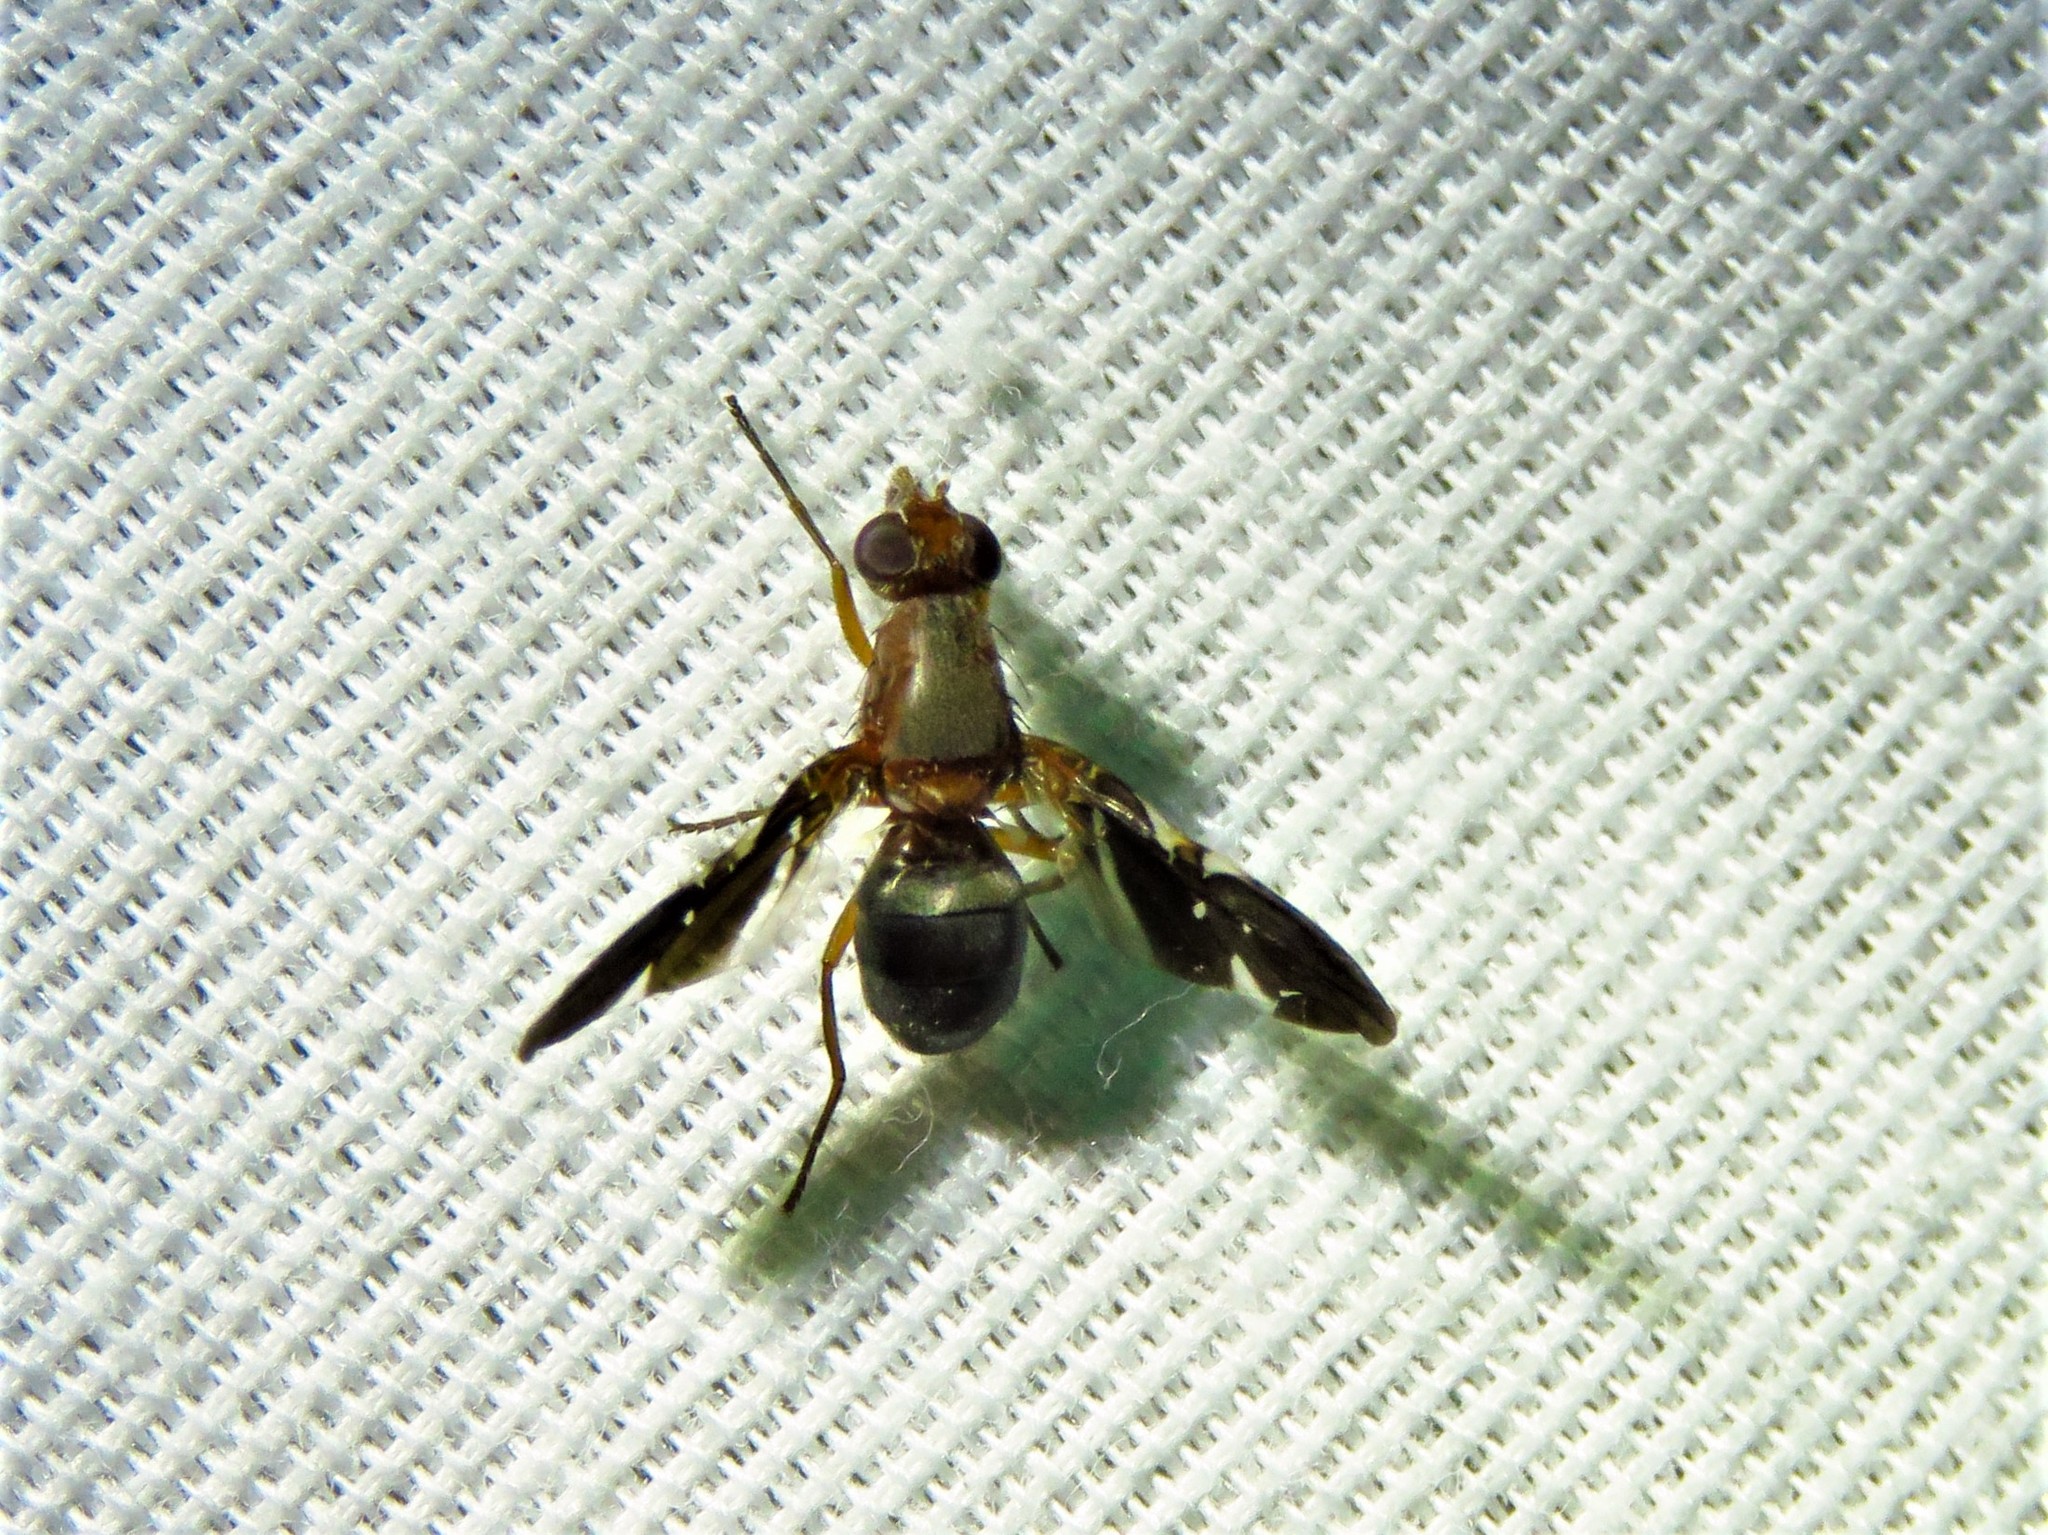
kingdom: Animalia
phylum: Arthropoda
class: Insecta
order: Diptera
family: Ulidiidae
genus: Delphinia
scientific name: Delphinia picta
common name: Common picture-winged fly
